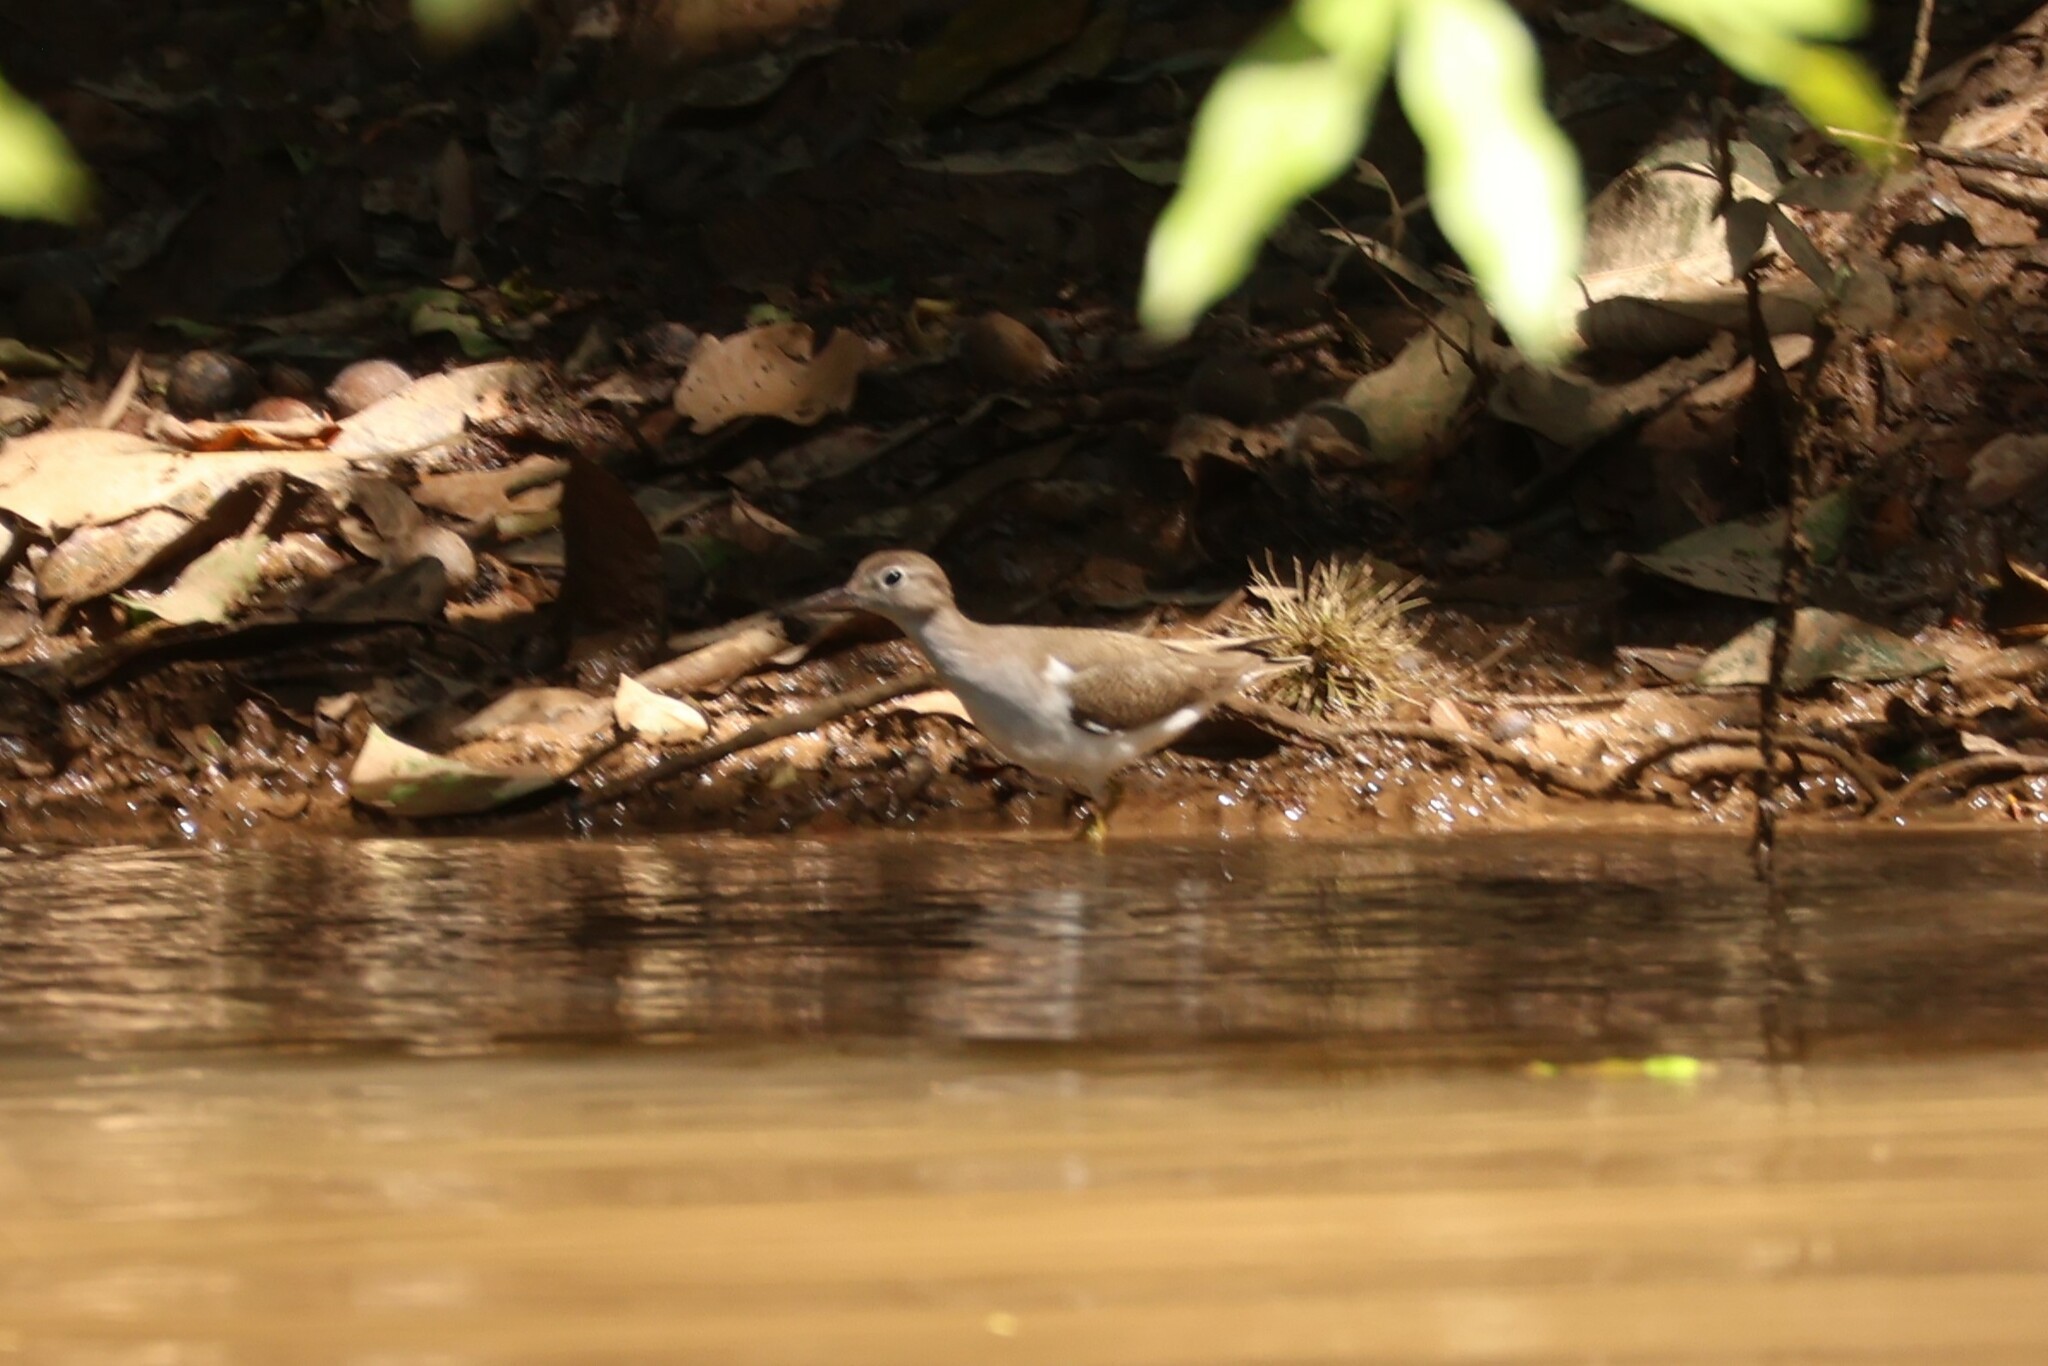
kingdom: Animalia
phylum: Chordata
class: Aves
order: Charadriiformes
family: Scolopacidae
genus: Actitis
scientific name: Actitis macularius
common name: Spotted sandpiper
